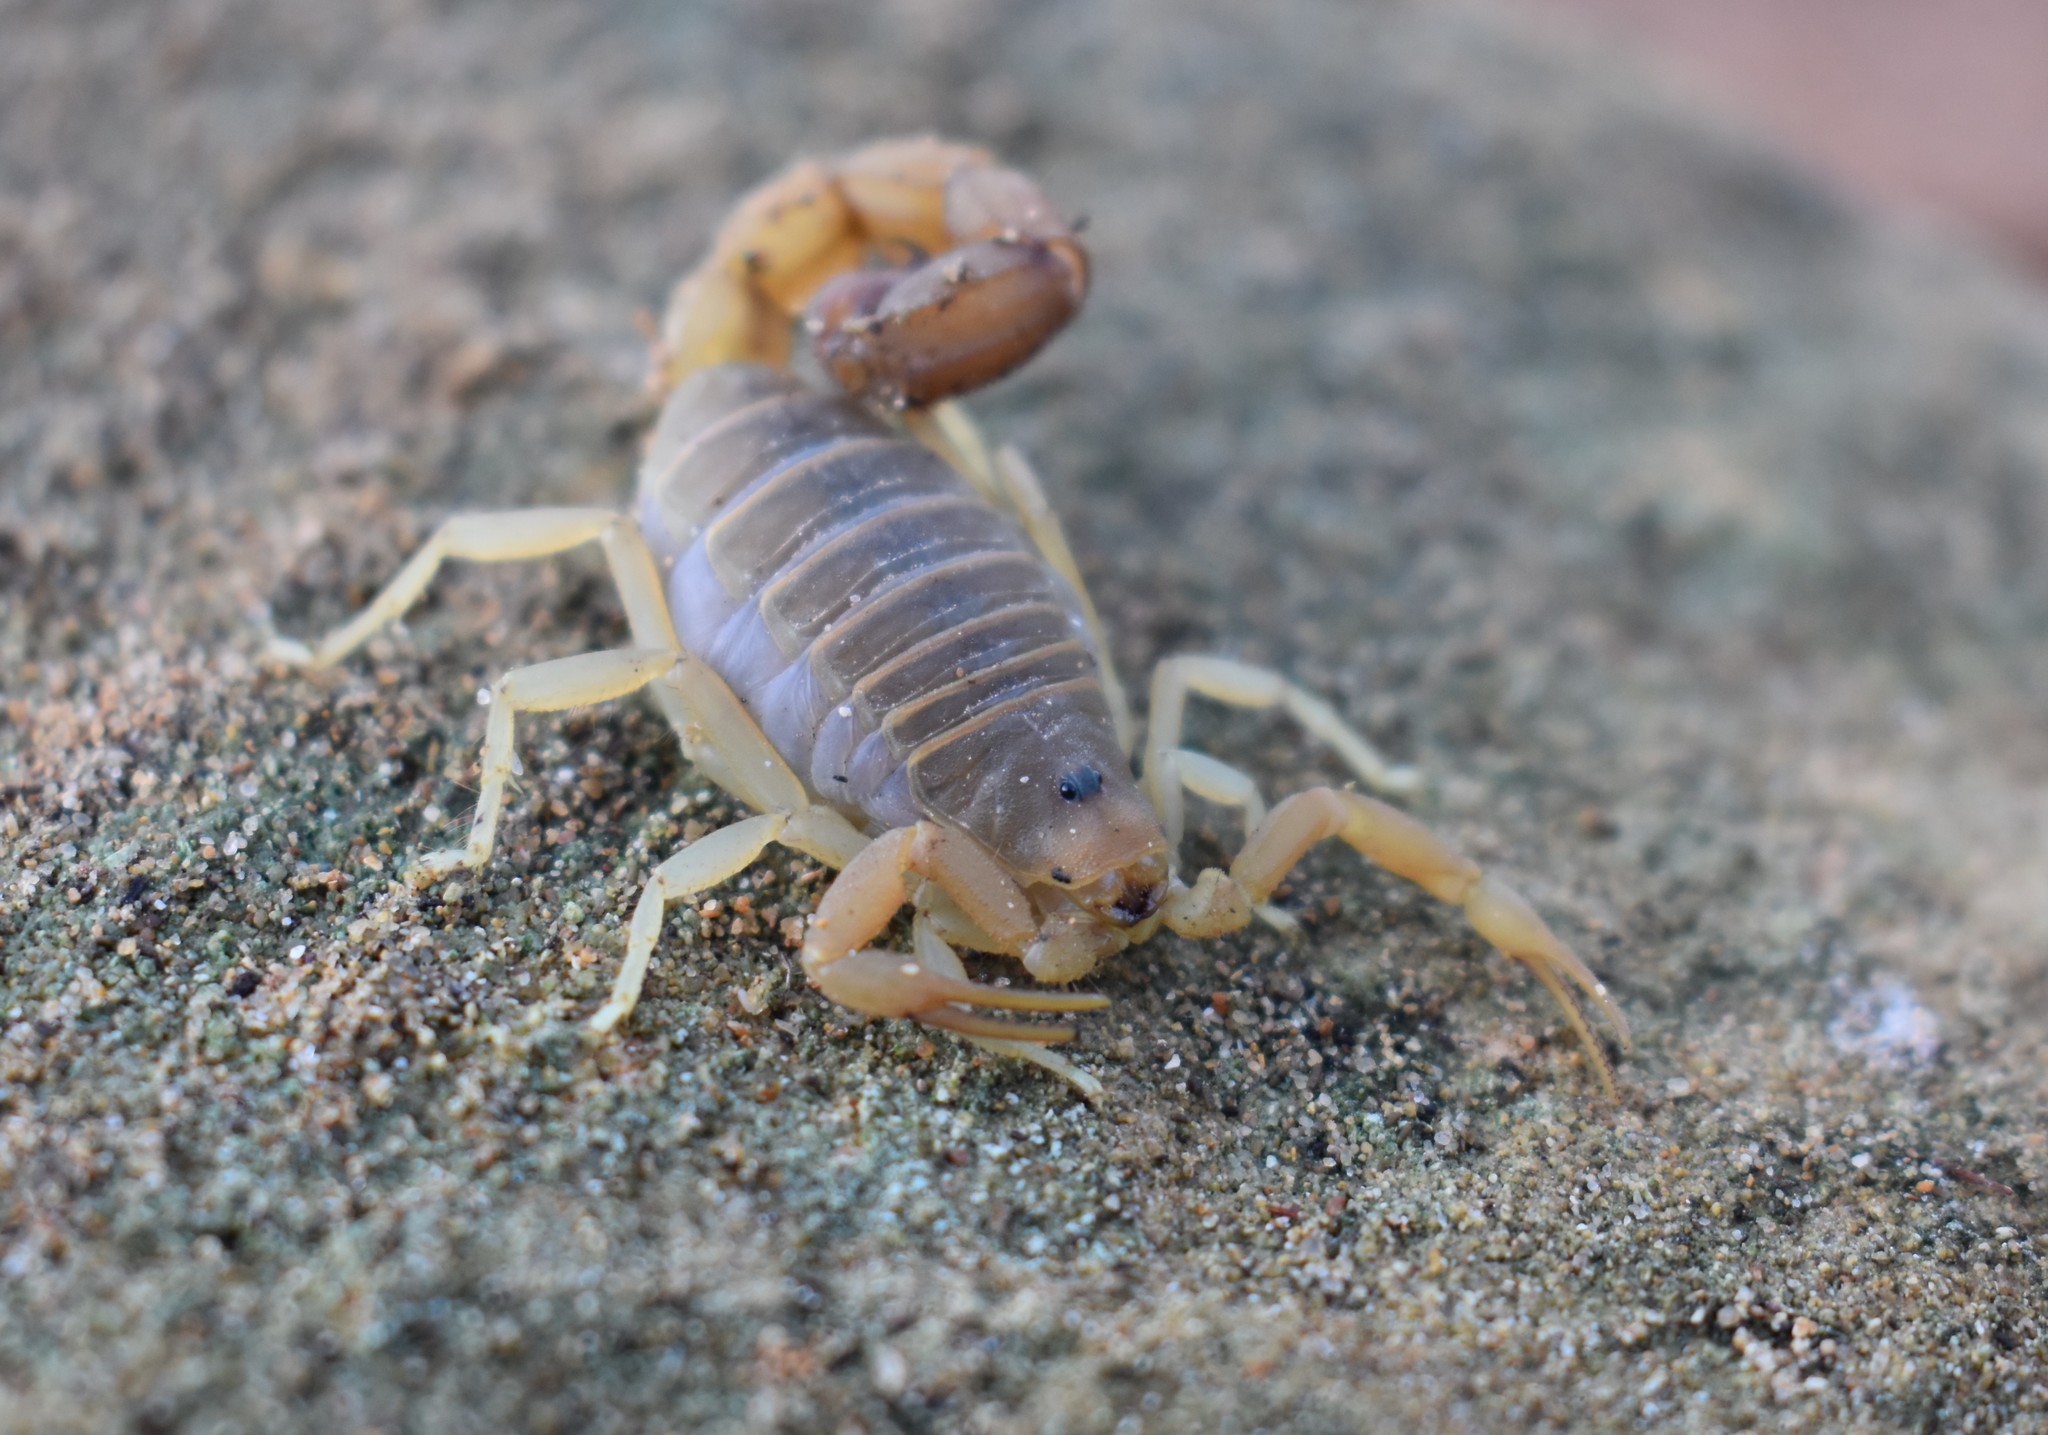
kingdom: Animalia
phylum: Arthropoda
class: Arachnida
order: Scorpiones
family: Buthidae
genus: Parabuthus
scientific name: Parabuthus planicauda
